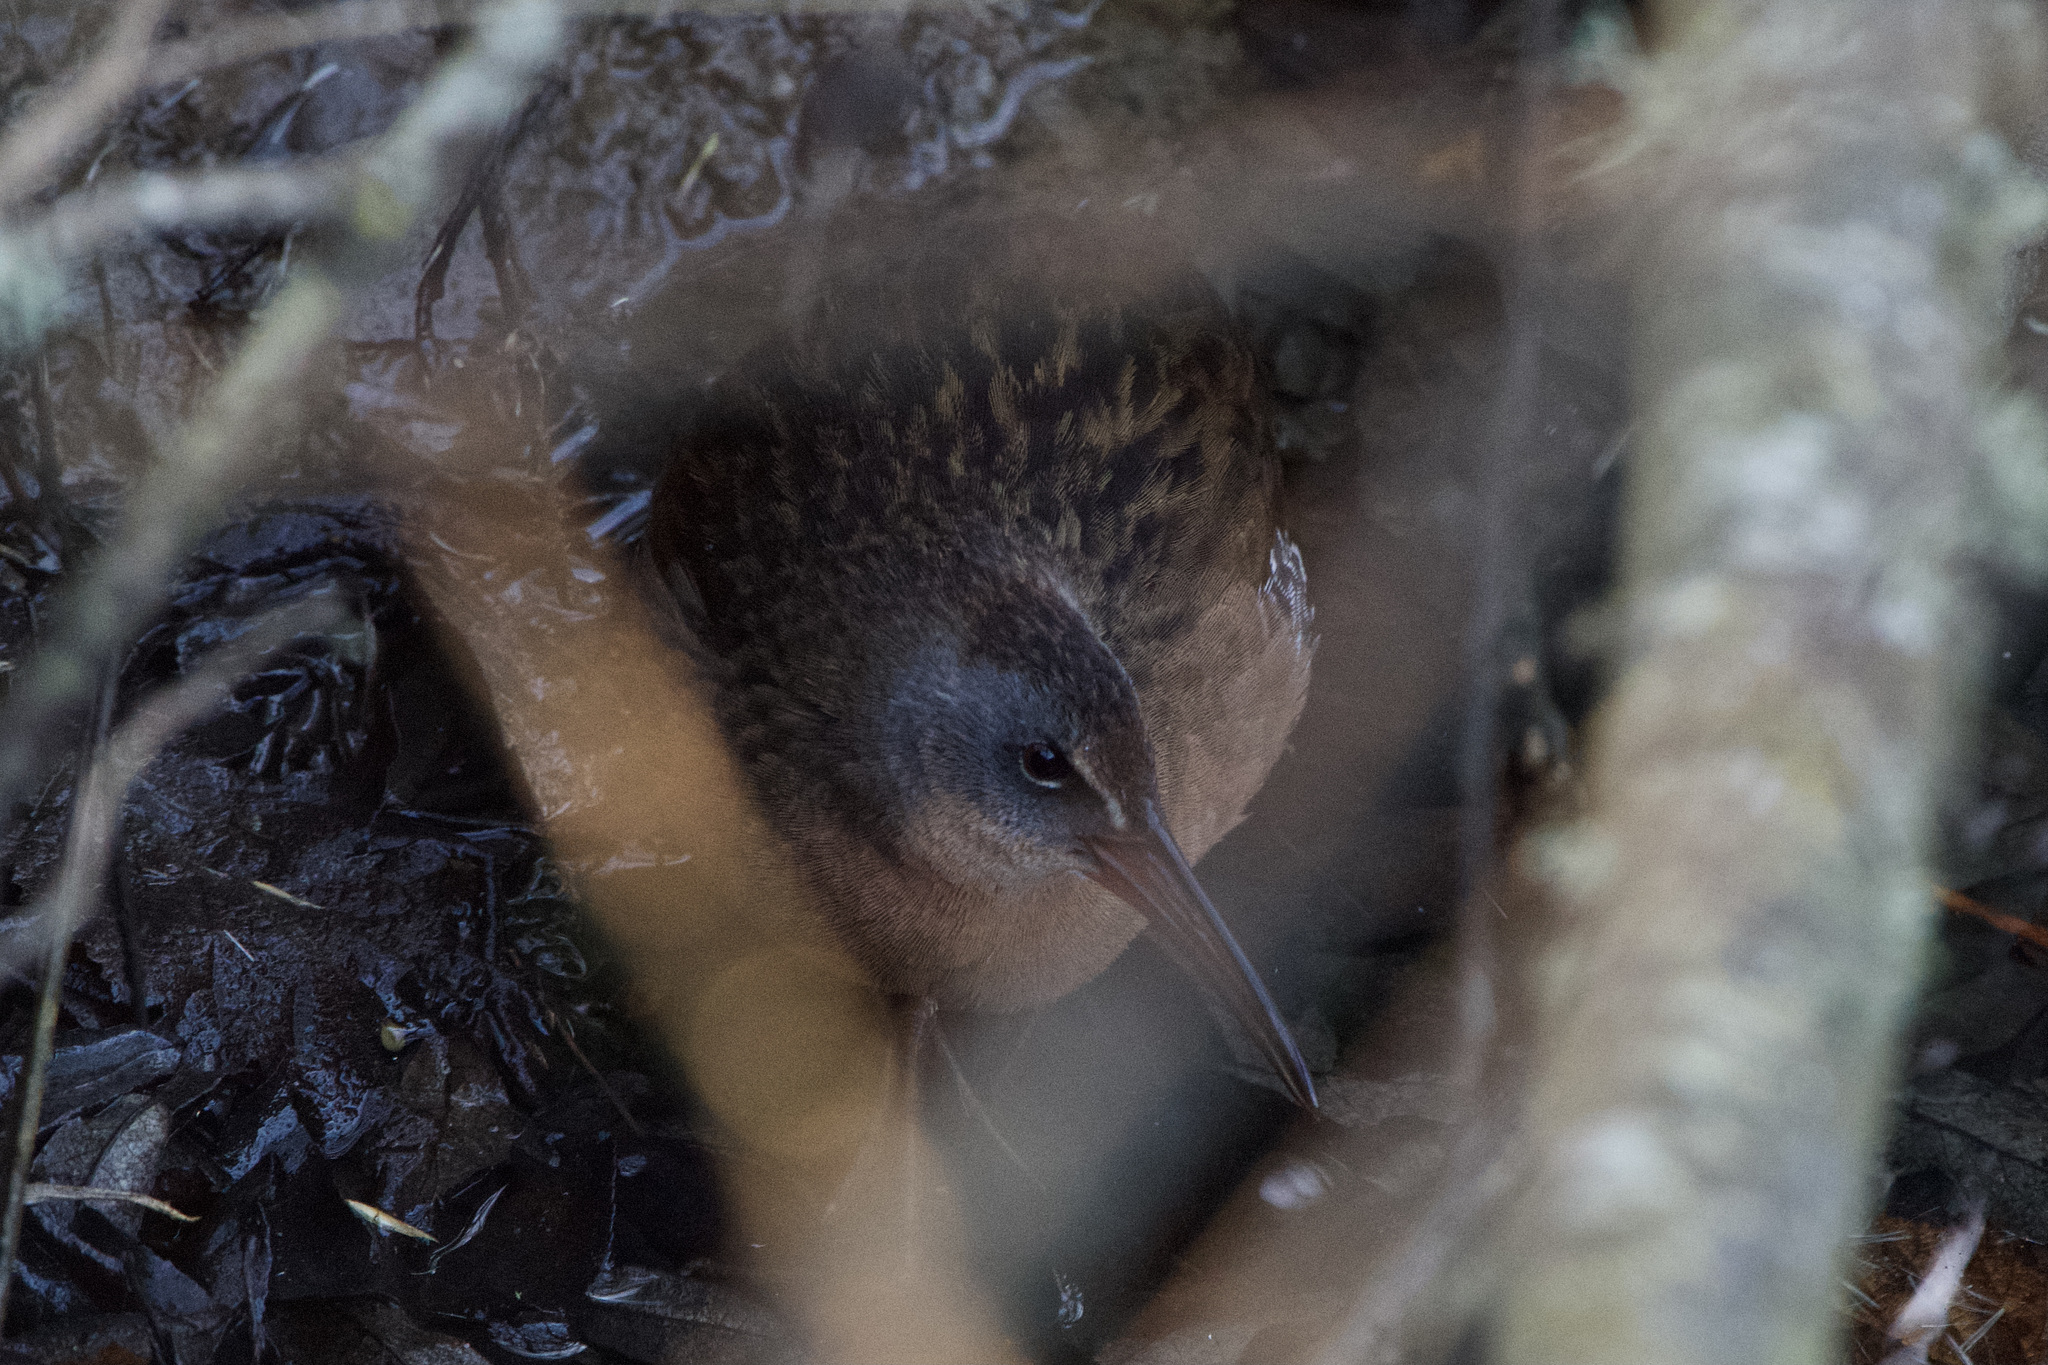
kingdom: Animalia
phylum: Chordata
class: Aves
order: Gruiformes
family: Rallidae
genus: Rallus
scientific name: Rallus limicola
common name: Virginia rail
